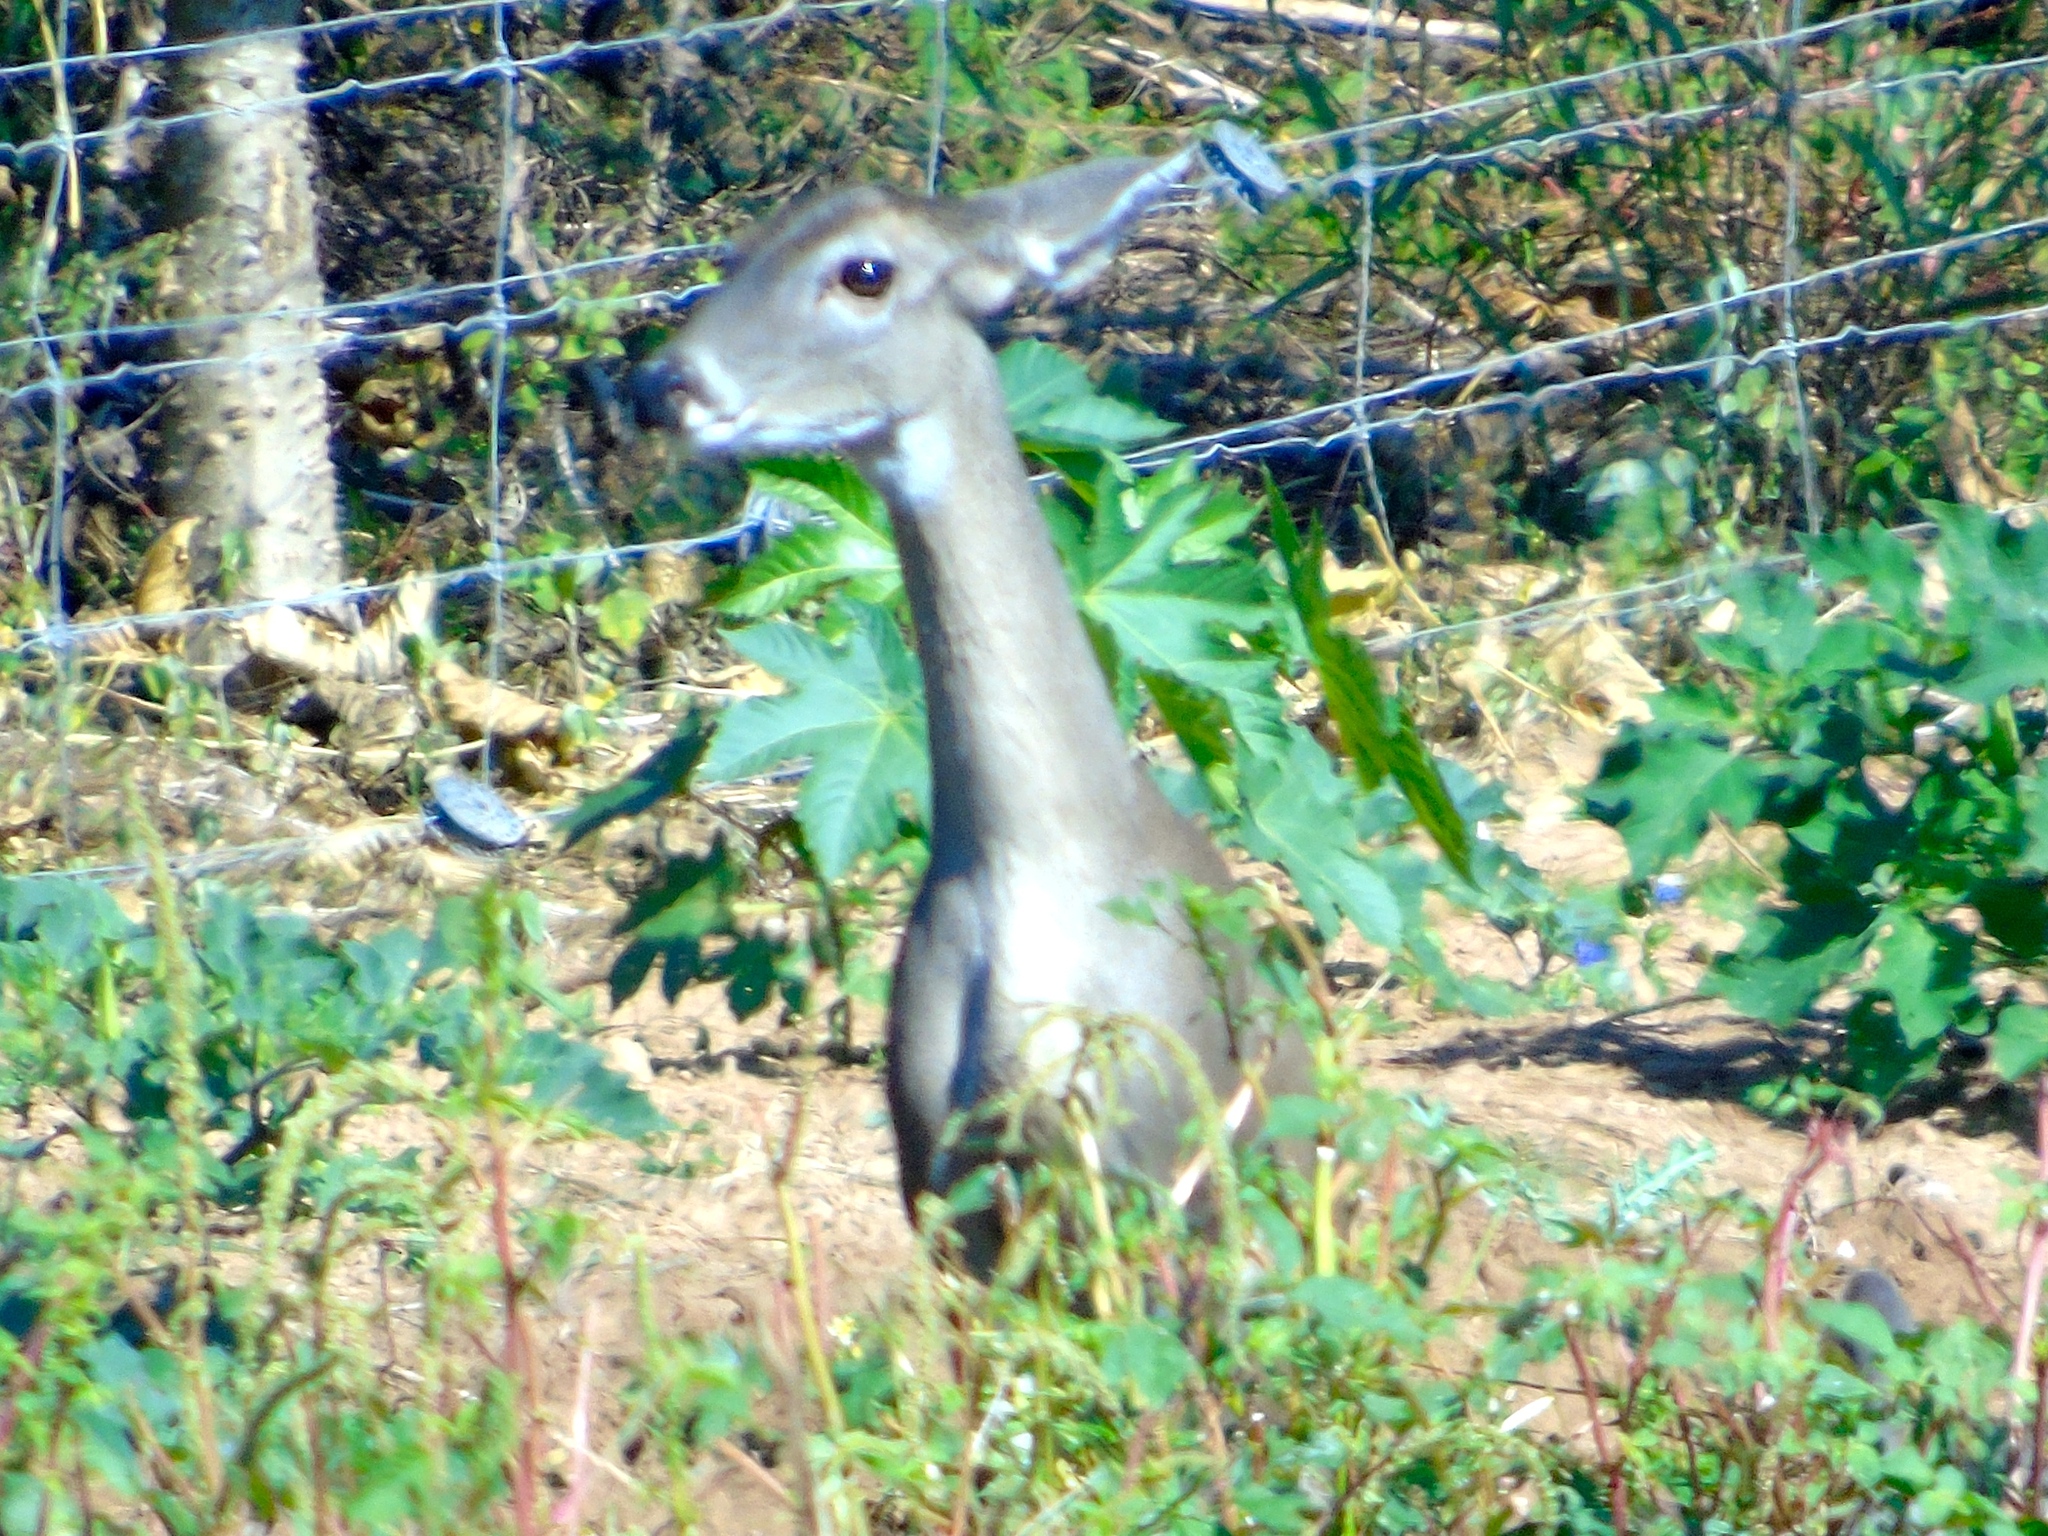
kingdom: Animalia
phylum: Chordata
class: Mammalia
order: Artiodactyla
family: Cervidae
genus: Odocoileus
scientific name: Odocoileus virginianus
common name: White-tailed deer
